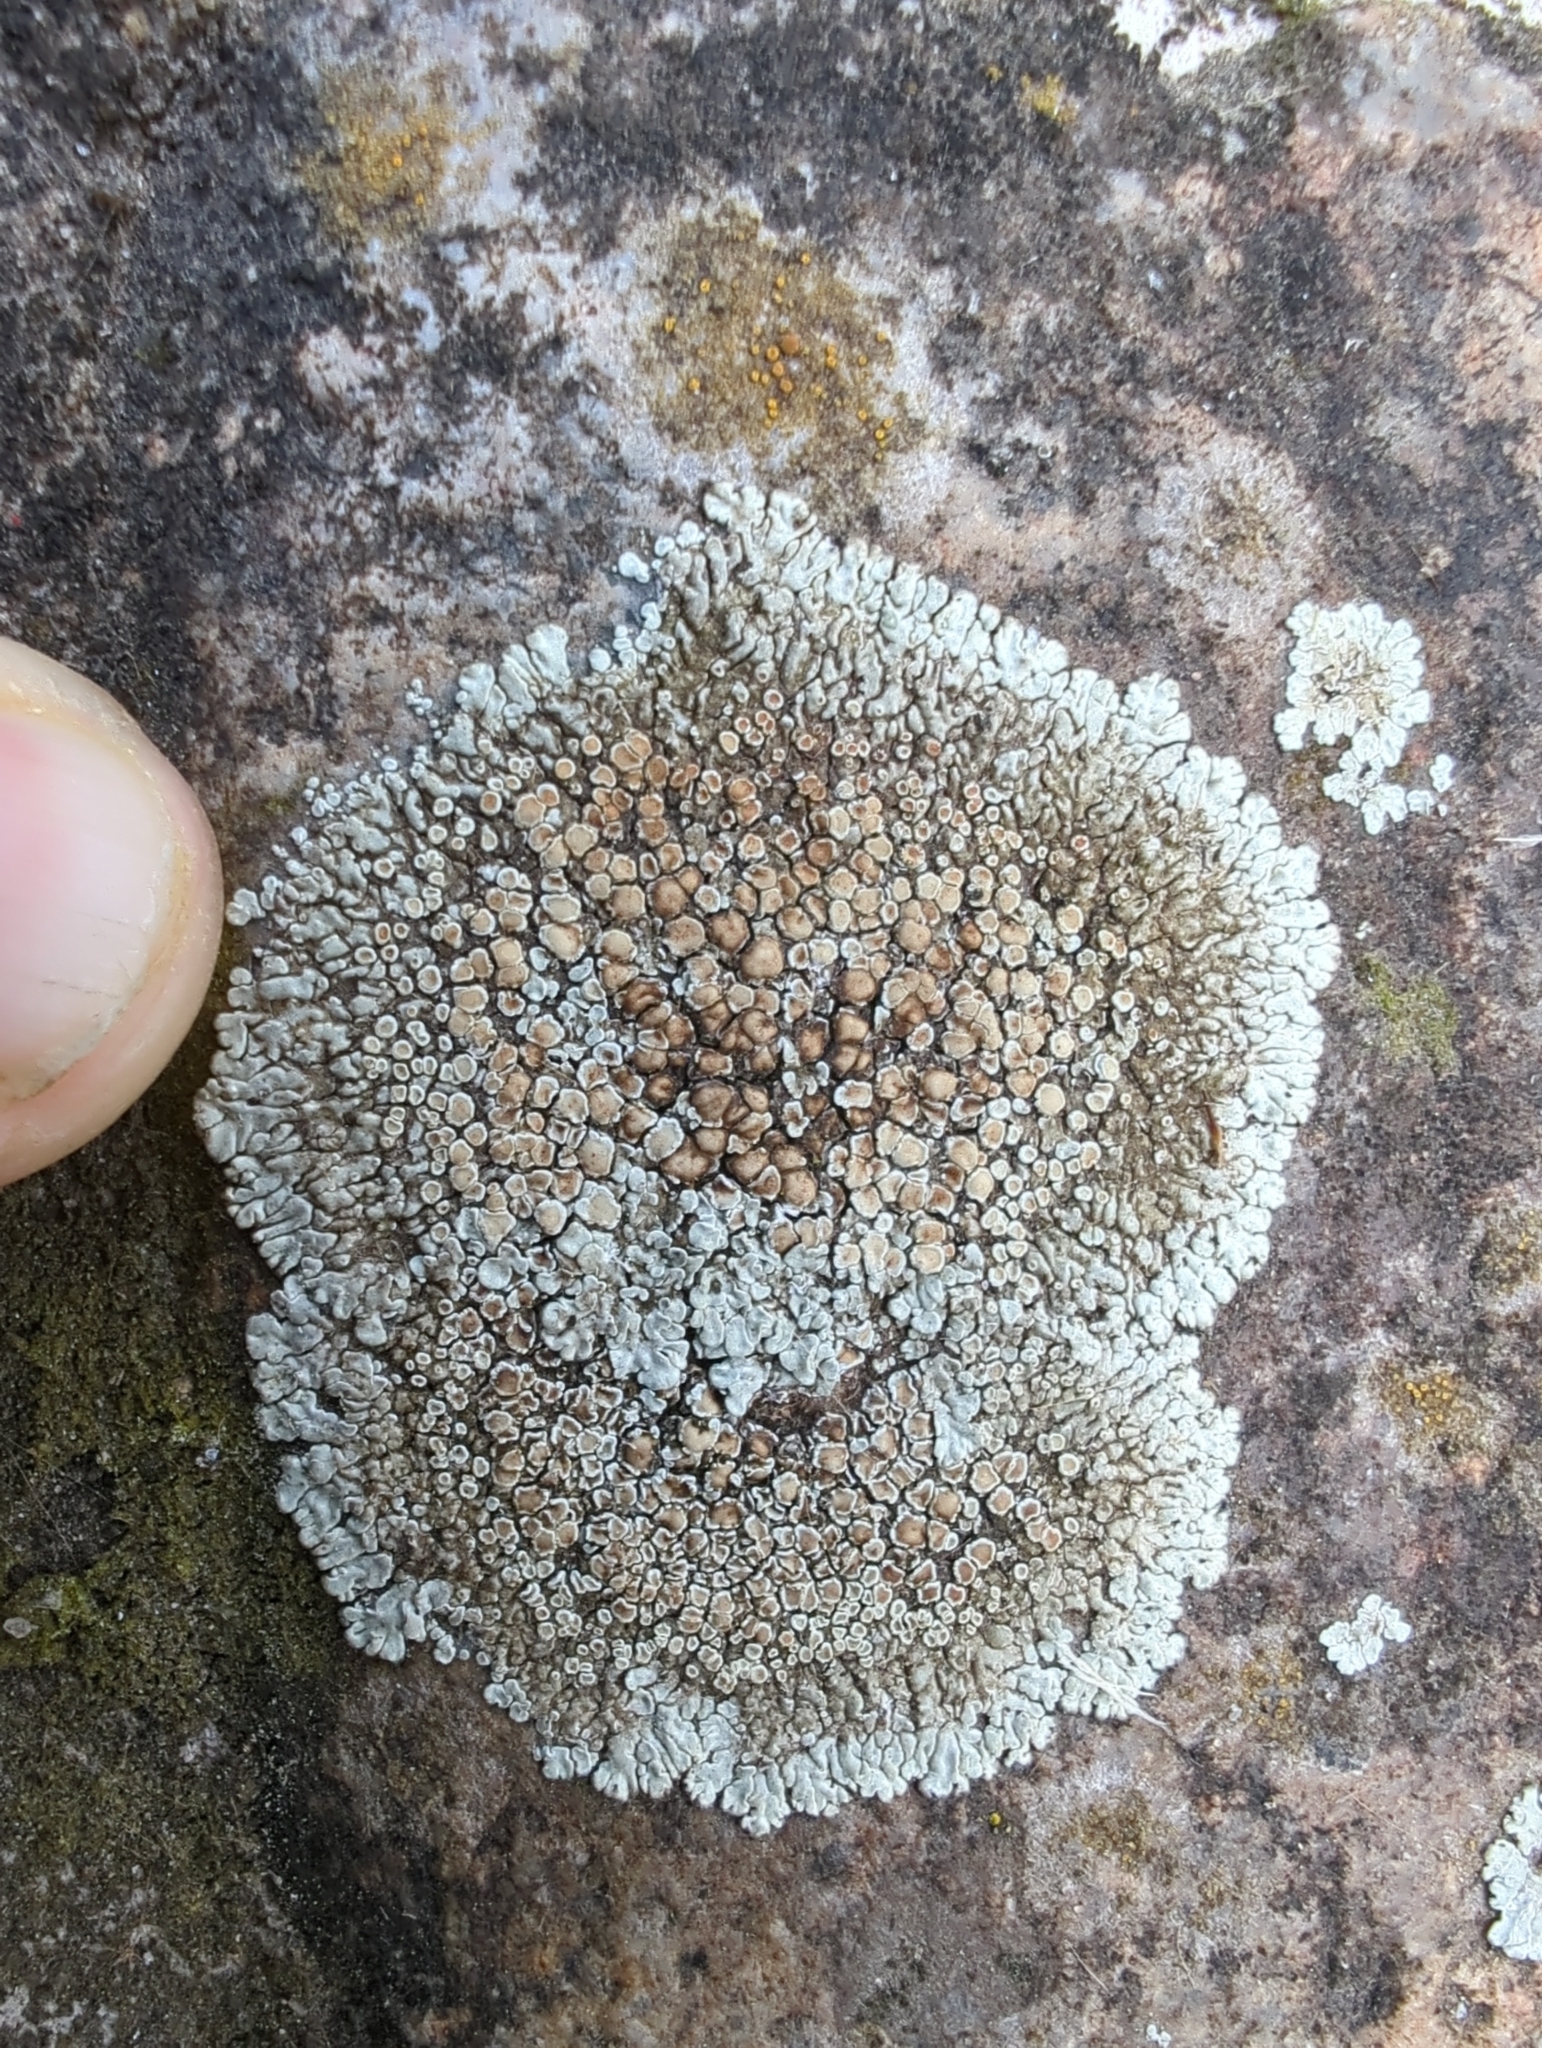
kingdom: Fungi
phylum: Ascomycota
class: Lecanoromycetes
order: Lecanorales
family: Lecanoraceae
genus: Protoparmeliopsis
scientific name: Protoparmeliopsis muralis
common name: Stonewall rim lichen
